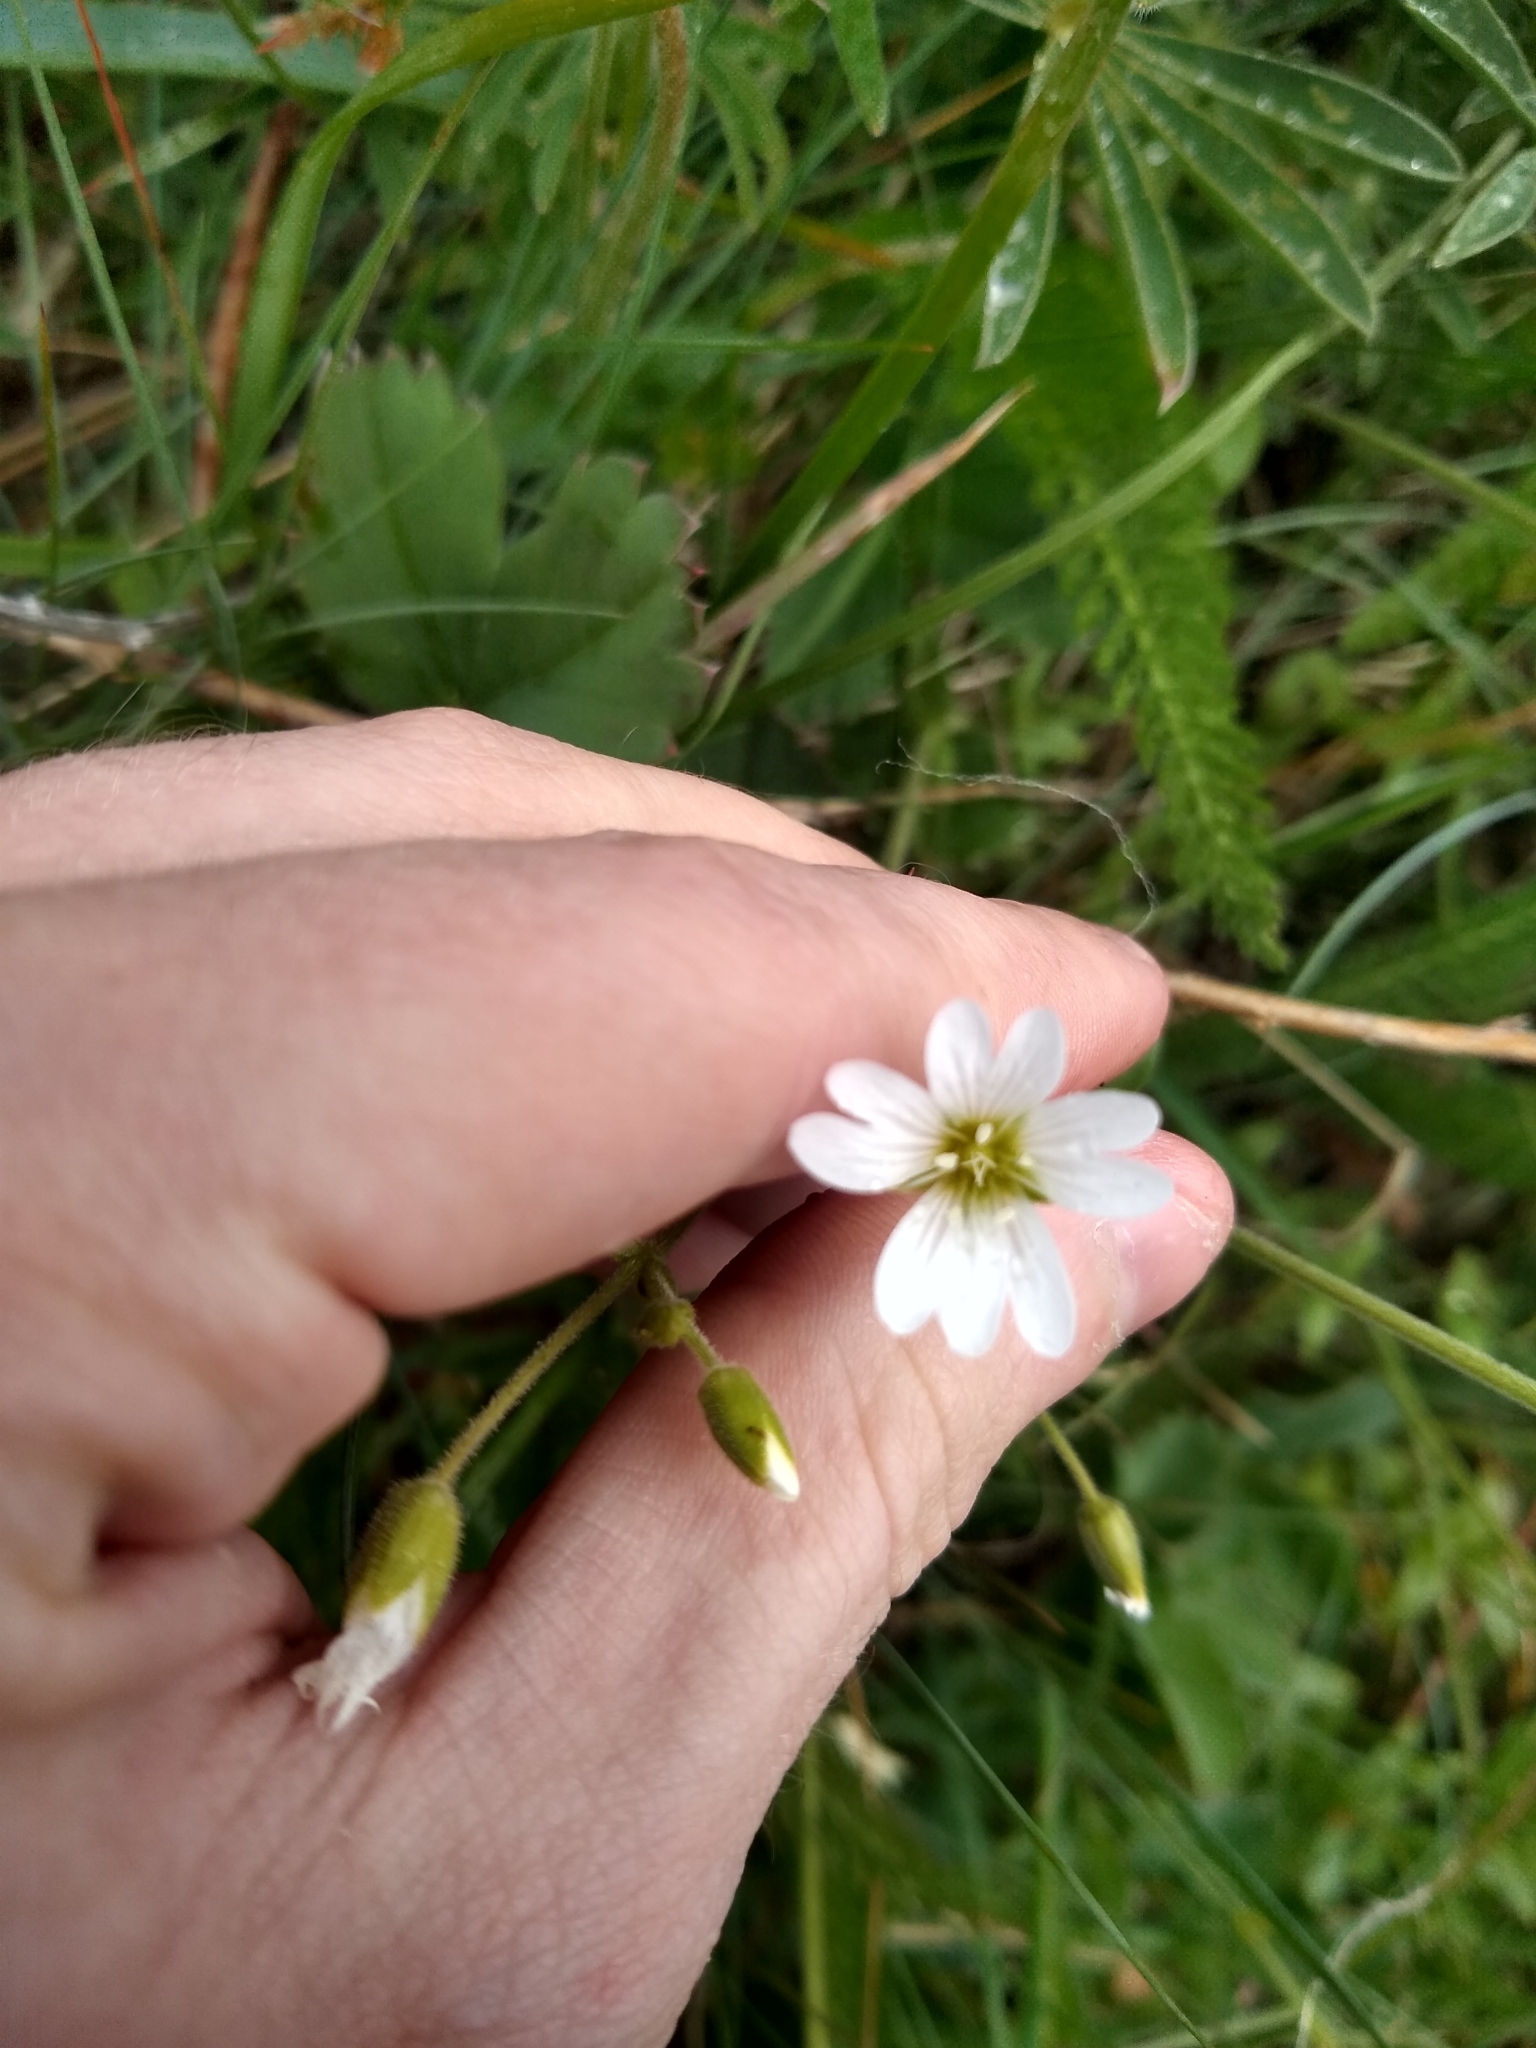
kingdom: Plantae
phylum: Tracheophyta
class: Magnoliopsida
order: Caryophyllales
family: Caryophyllaceae
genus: Cerastium
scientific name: Cerastium arvense
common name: Field mouse-ear
